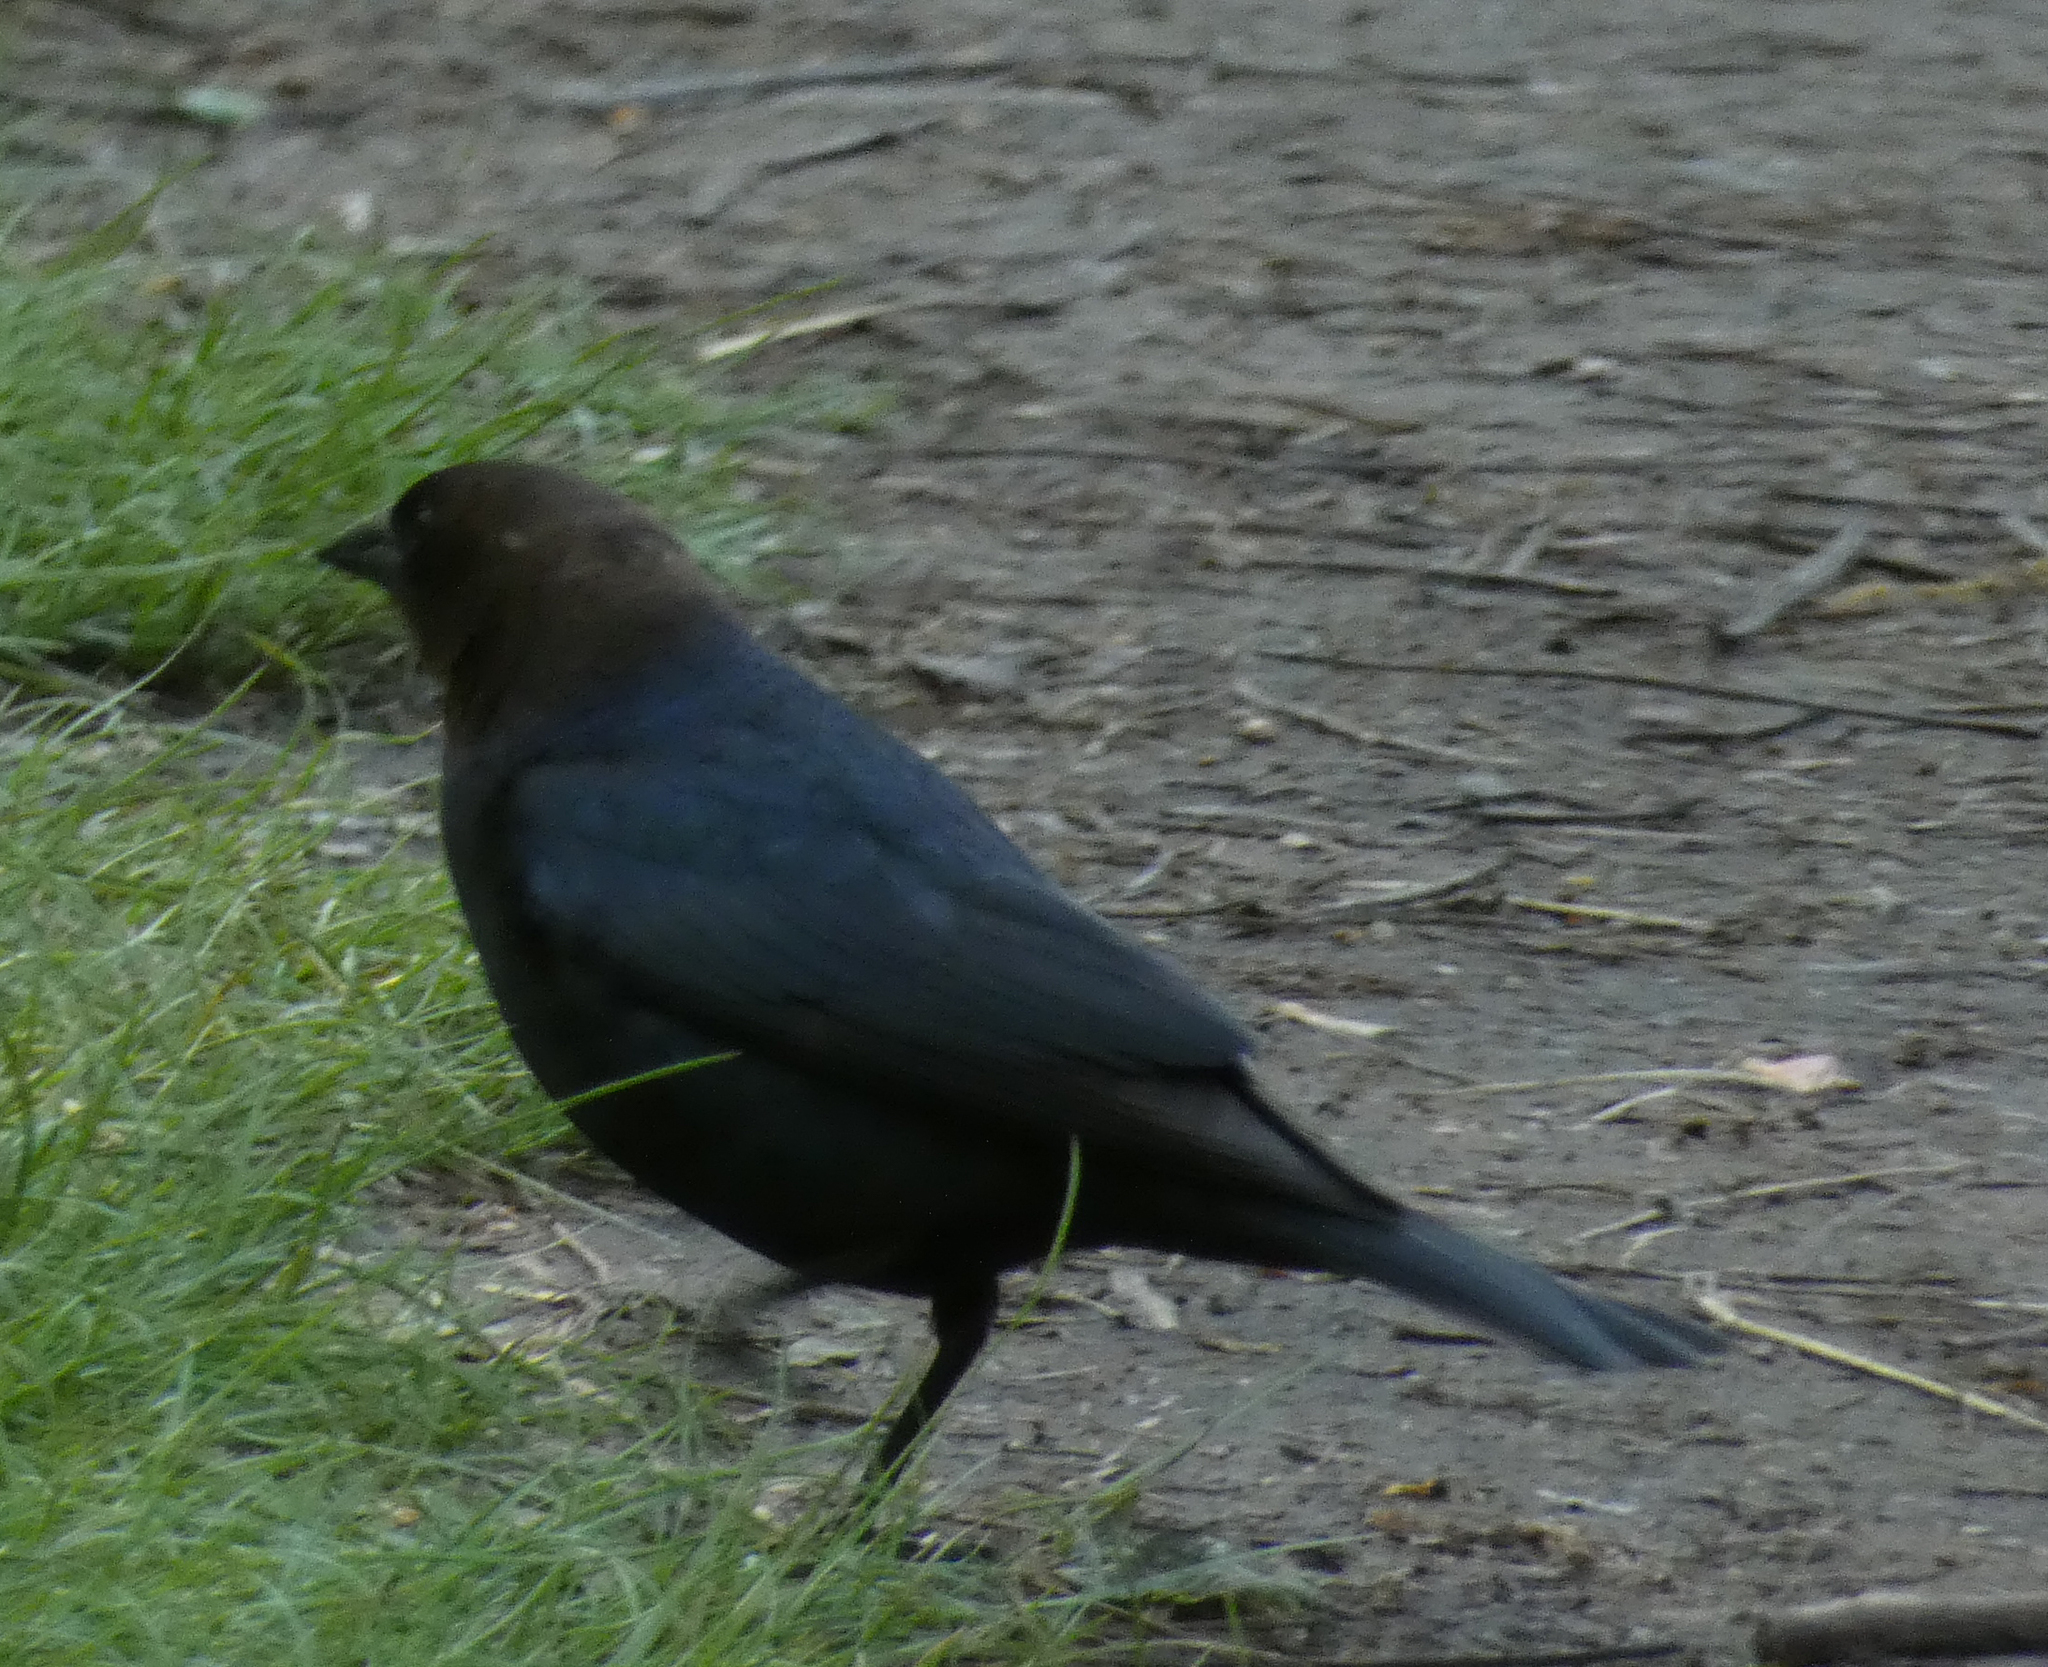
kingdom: Animalia
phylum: Chordata
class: Aves
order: Passeriformes
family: Icteridae
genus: Molothrus
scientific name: Molothrus ater
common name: Brown-headed cowbird
